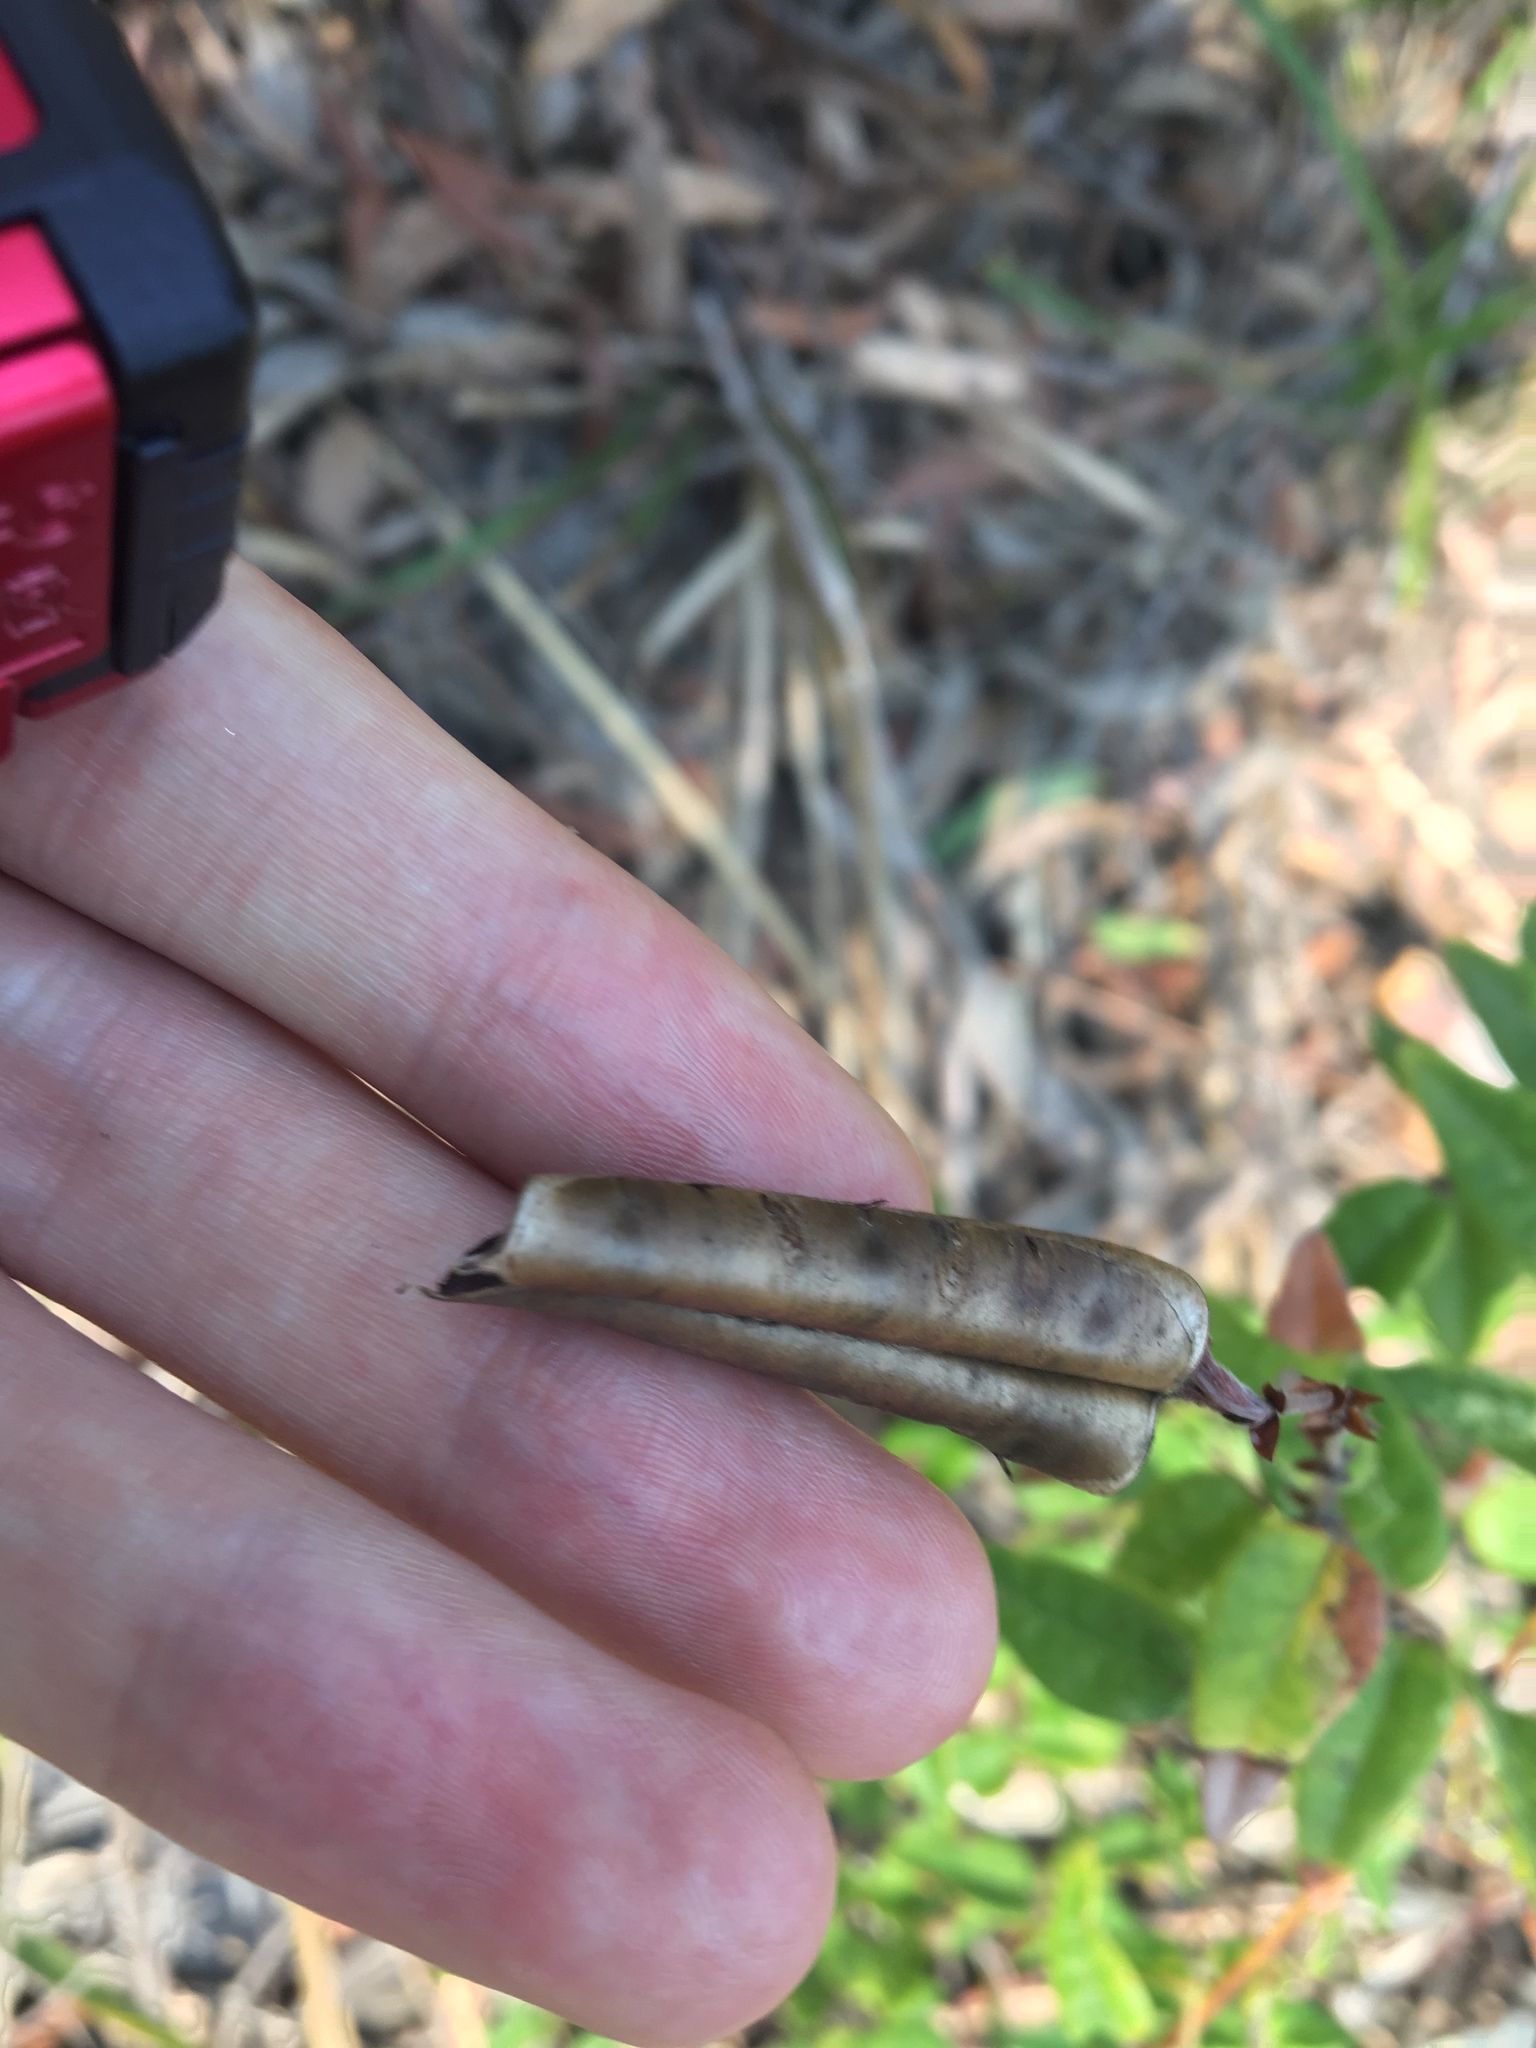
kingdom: Plantae
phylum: Tracheophyta
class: Magnoliopsida
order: Fabales
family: Fabaceae
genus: Platylobium
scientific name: Platylobium parviflorum
